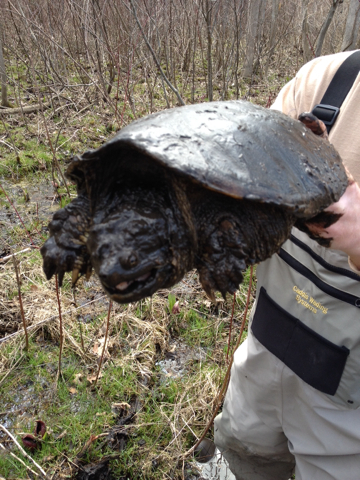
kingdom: Animalia
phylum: Chordata
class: Testudines
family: Chelydridae
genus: Chelydra
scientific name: Chelydra serpentina
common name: Common snapping turtle
